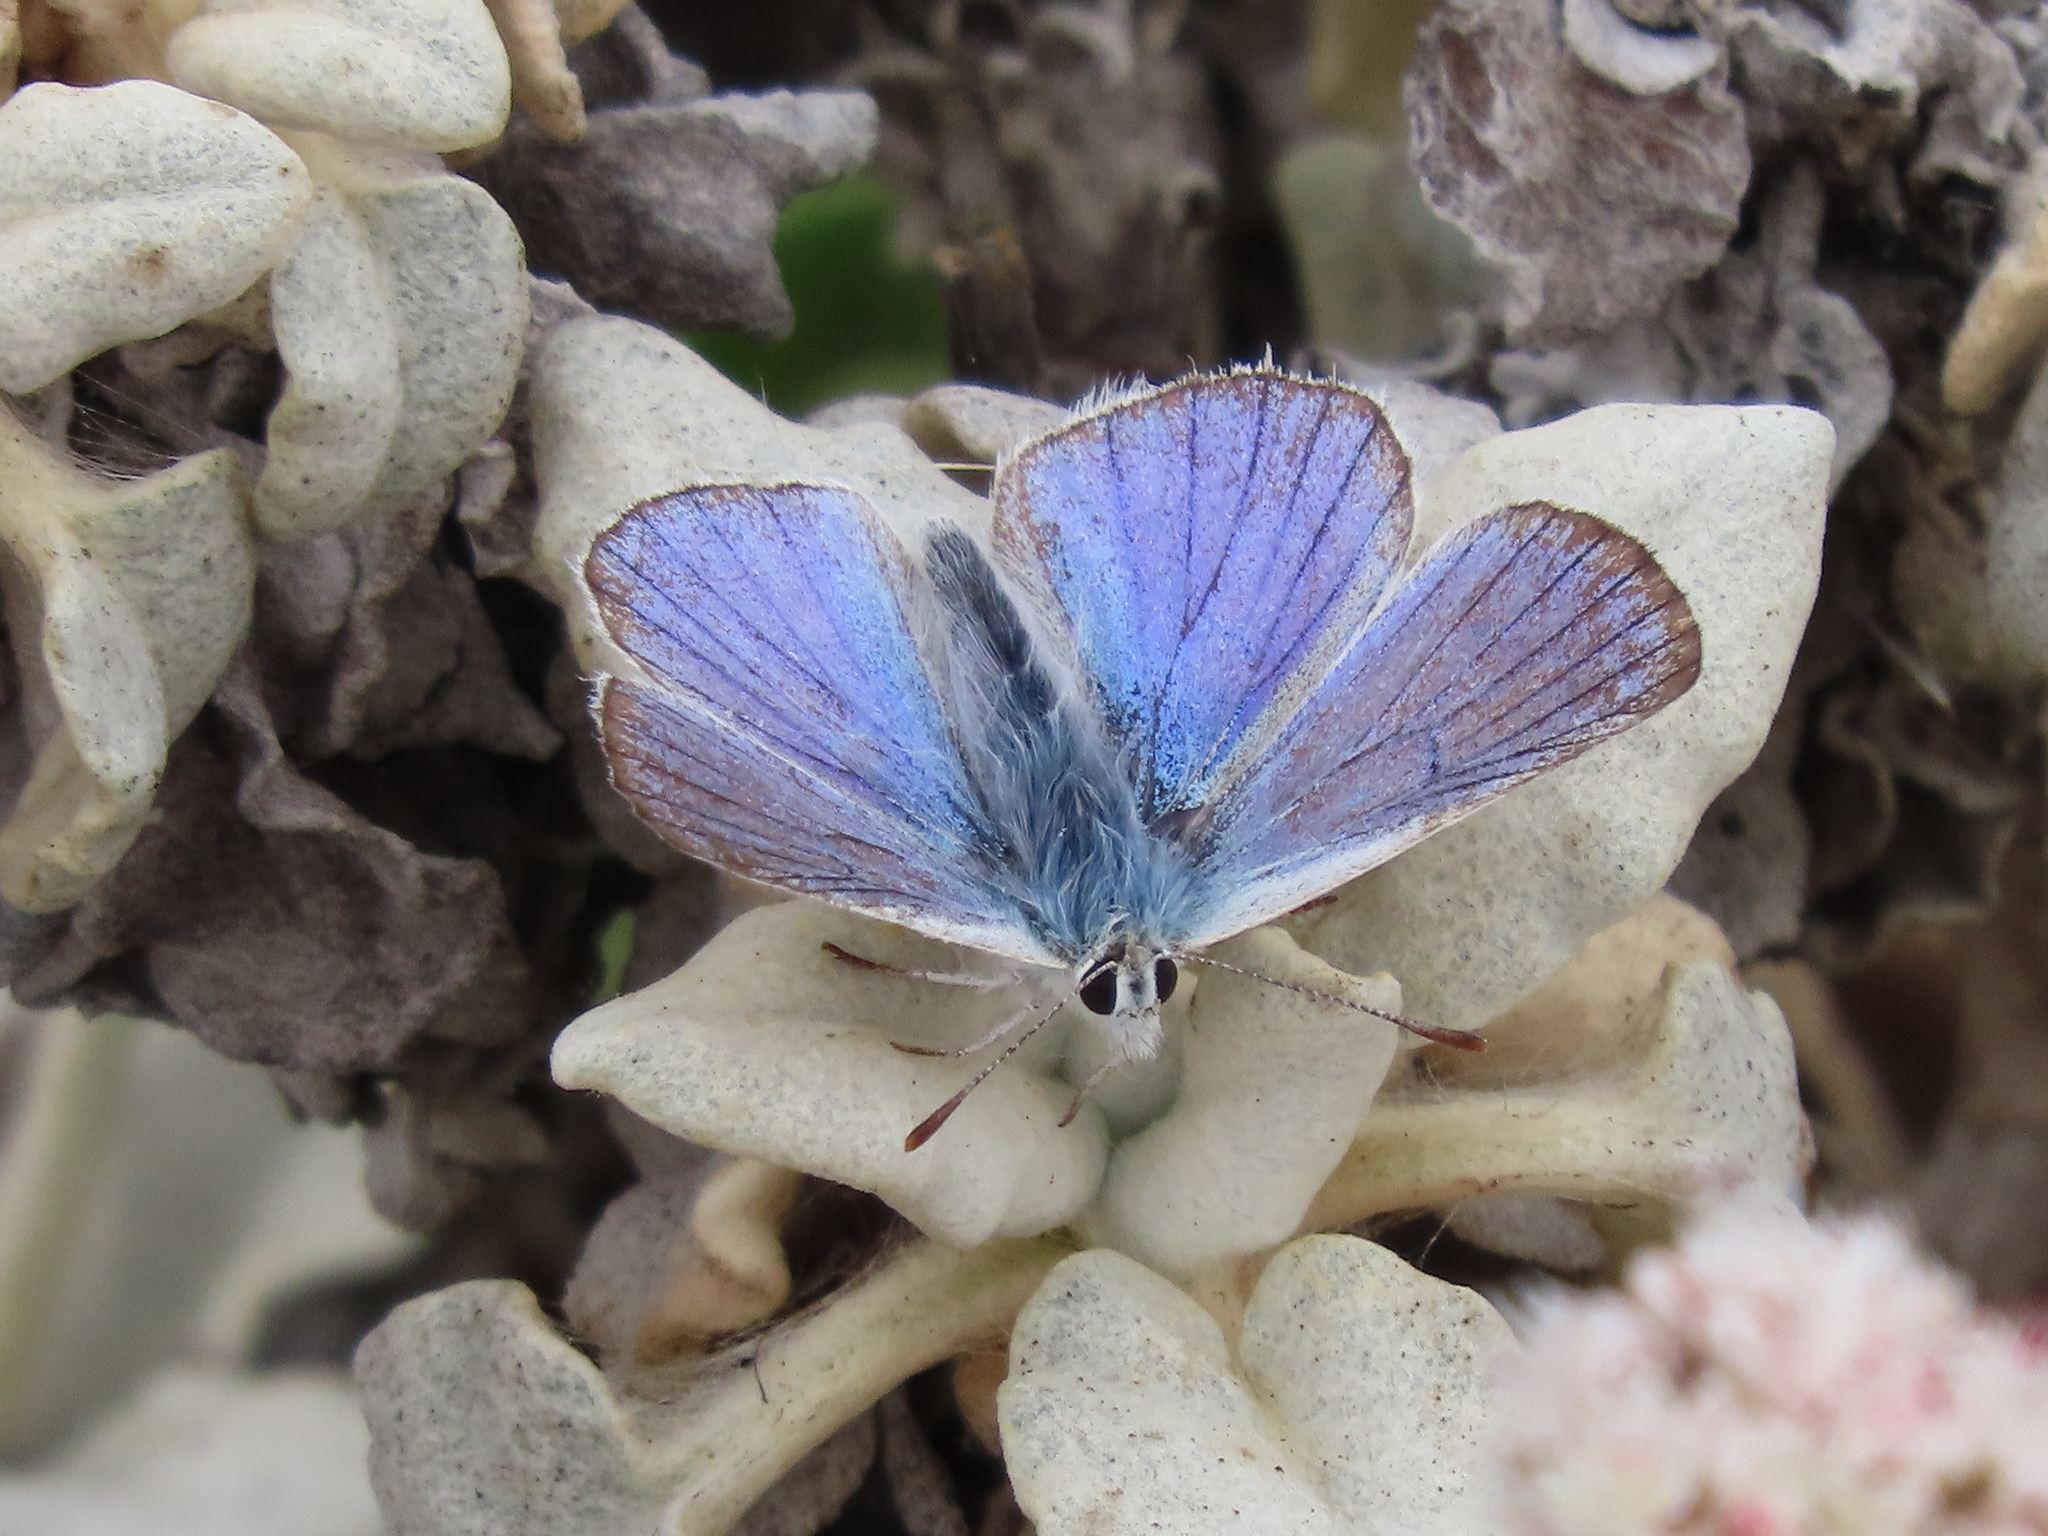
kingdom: Animalia
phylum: Arthropoda
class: Insecta
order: Lepidoptera
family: Lycaenidae
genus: Tharsalea
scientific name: Tharsalea heteronea
